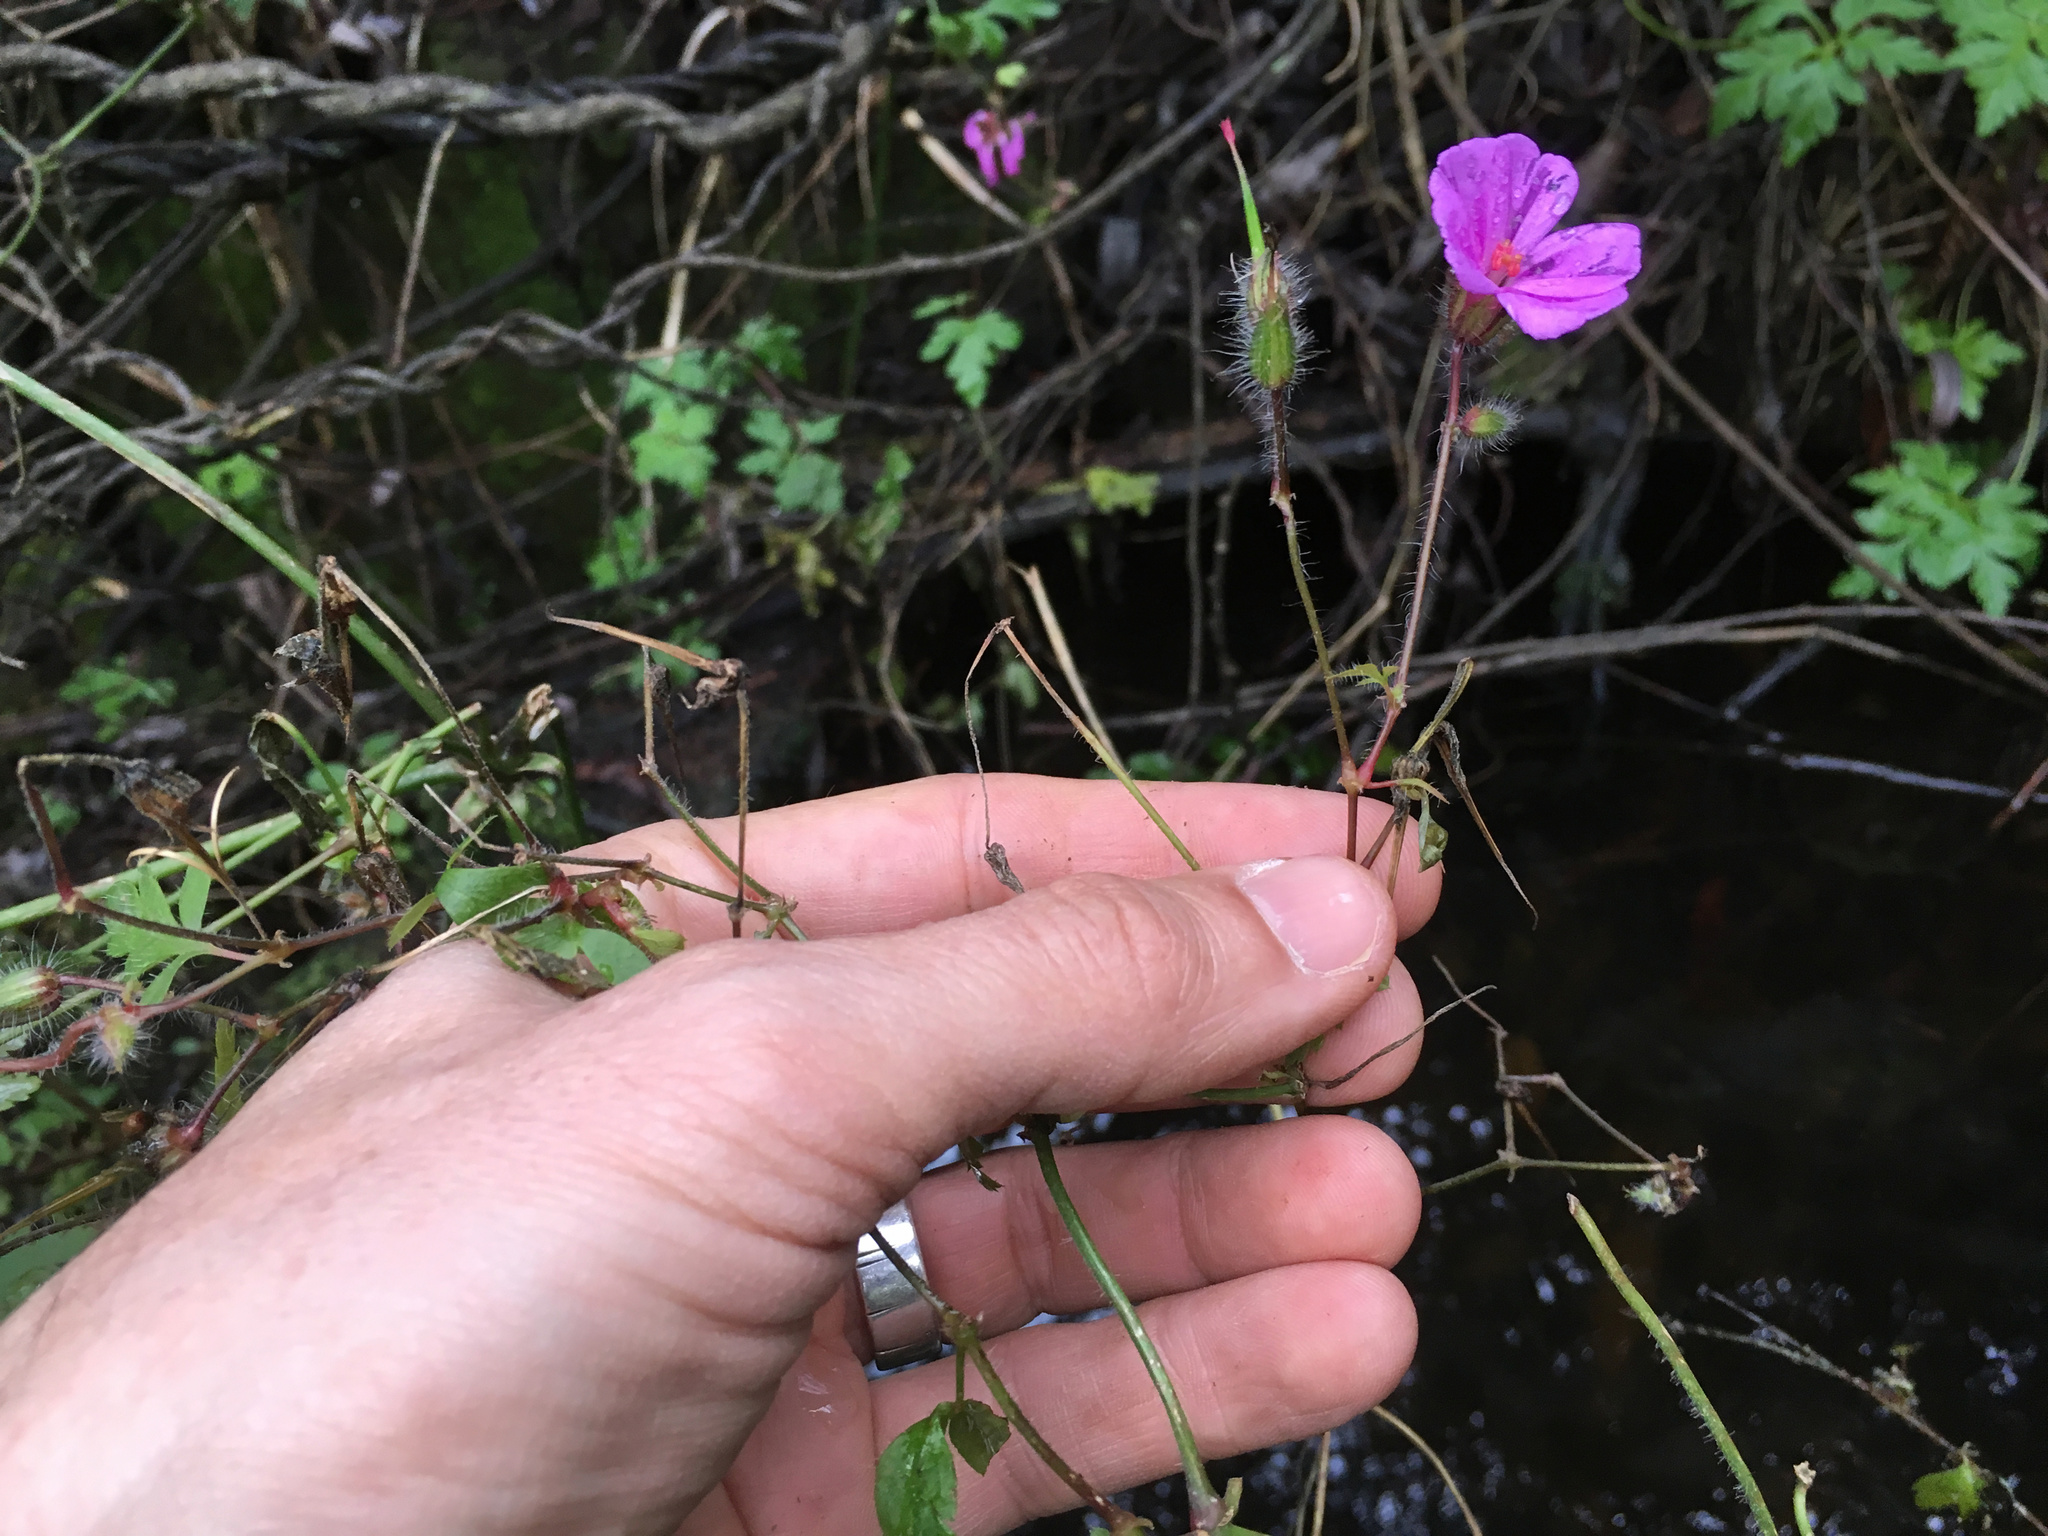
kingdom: Plantae
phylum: Tracheophyta
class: Magnoliopsida
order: Geraniales
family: Geraniaceae
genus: Geranium
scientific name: Geranium robertianum
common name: Herb-robert
